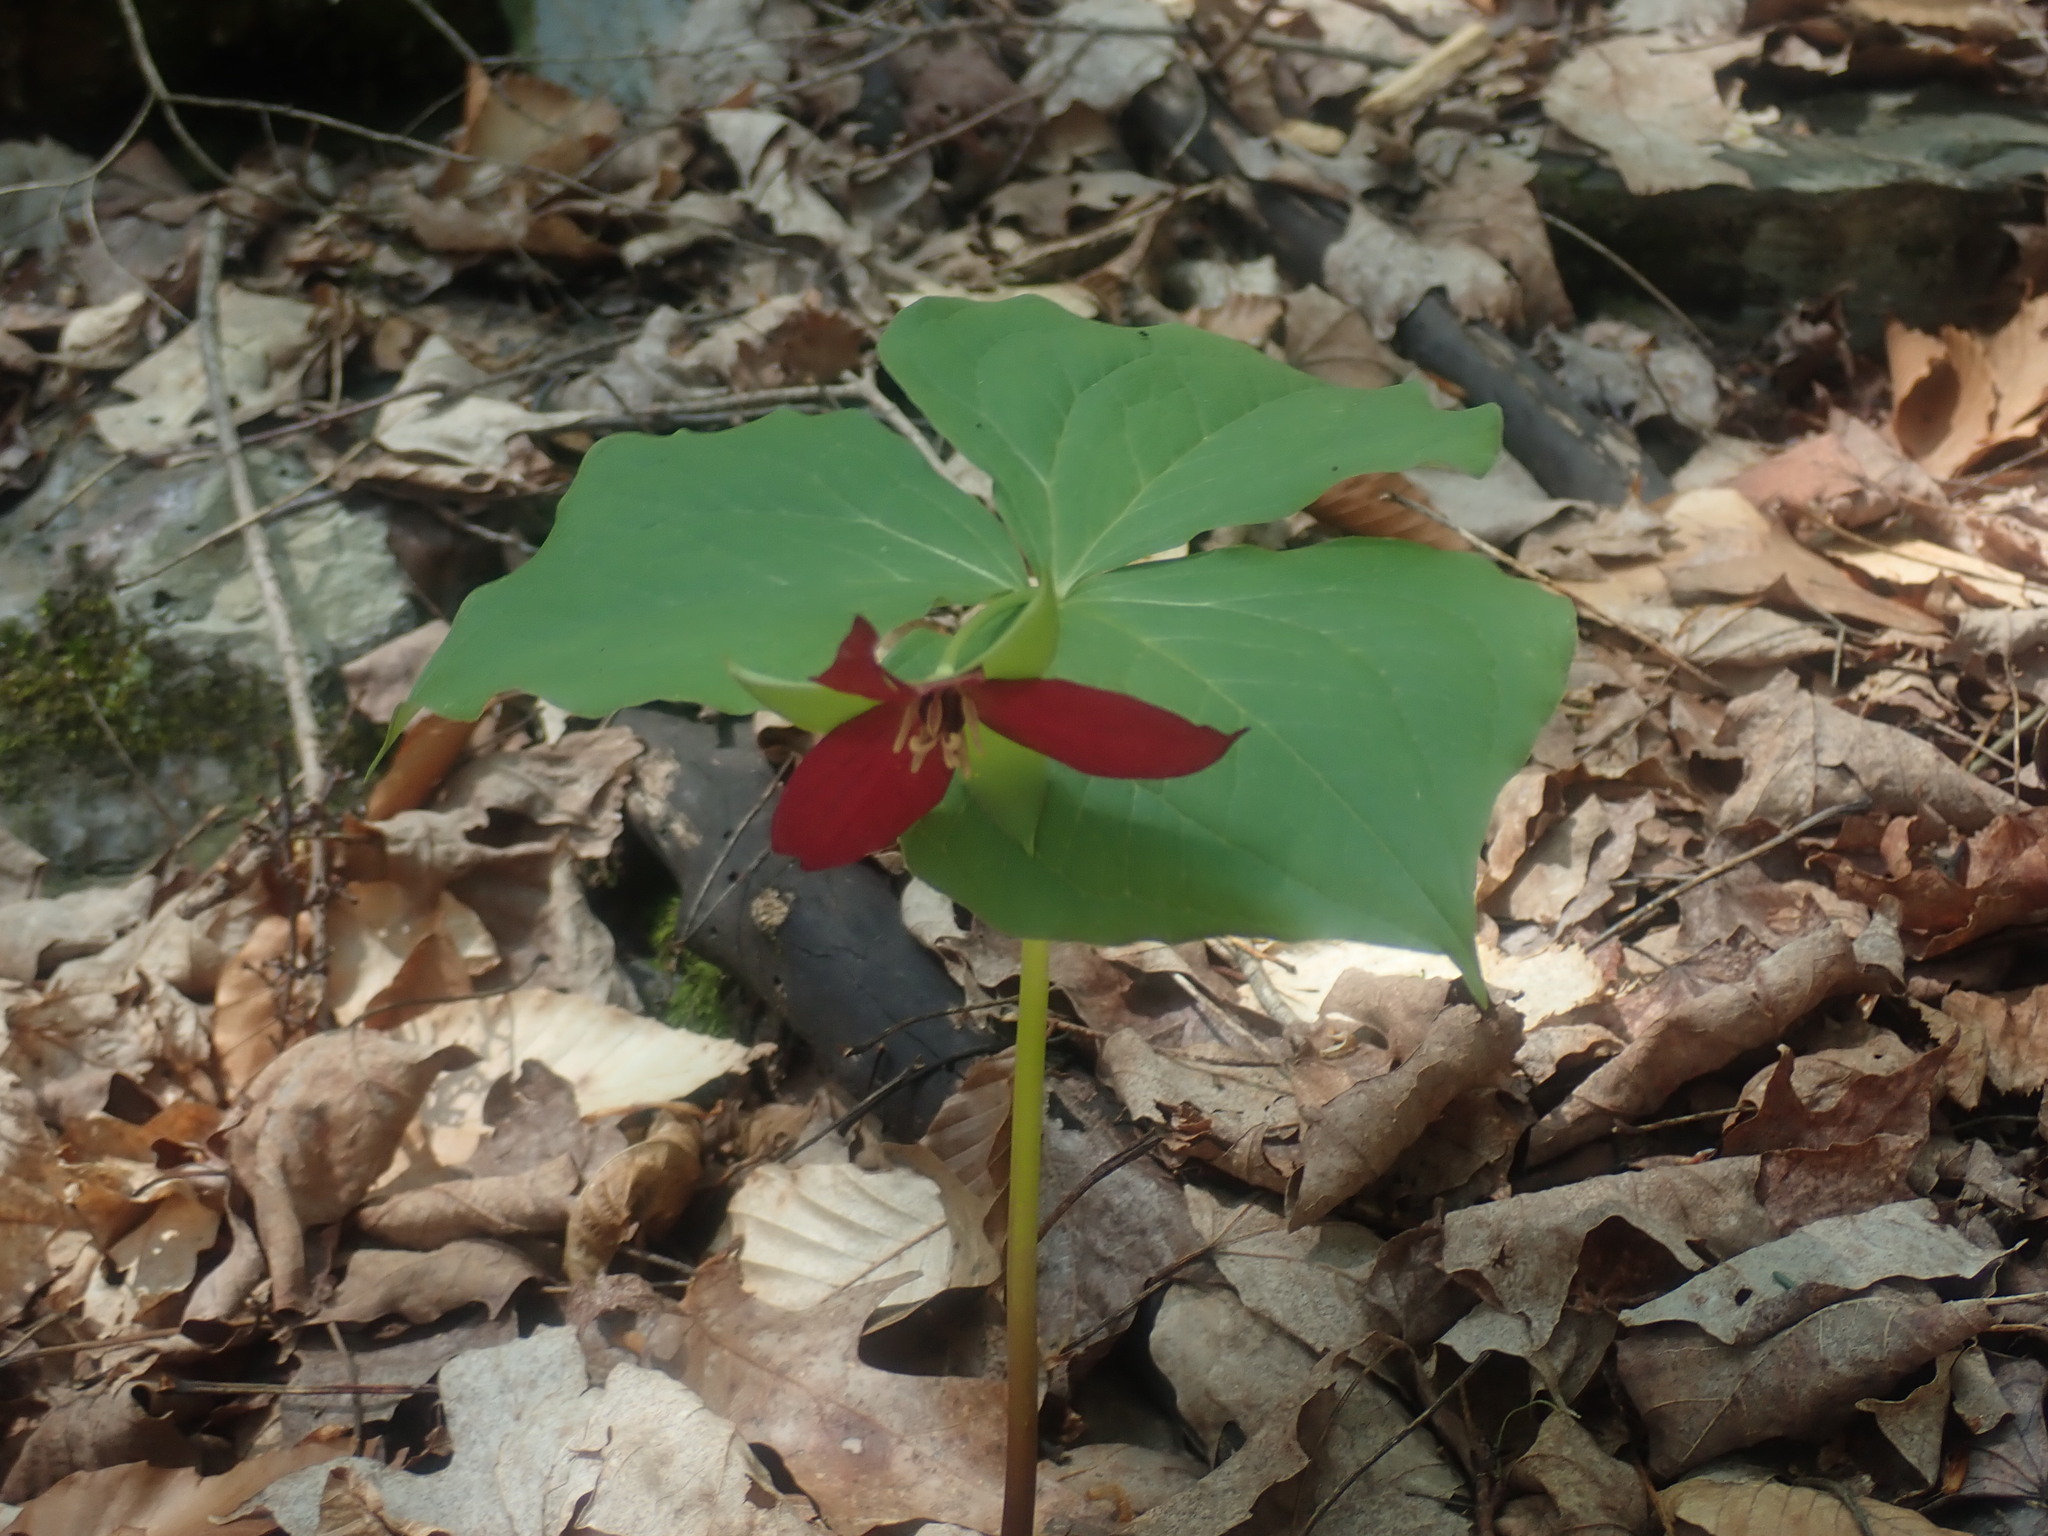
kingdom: Plantae
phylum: Tracheophyta
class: Liliopsida
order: Liliales
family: Melanthiaceae
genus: Trillium
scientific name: Trillium erectum
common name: Purple trillium
